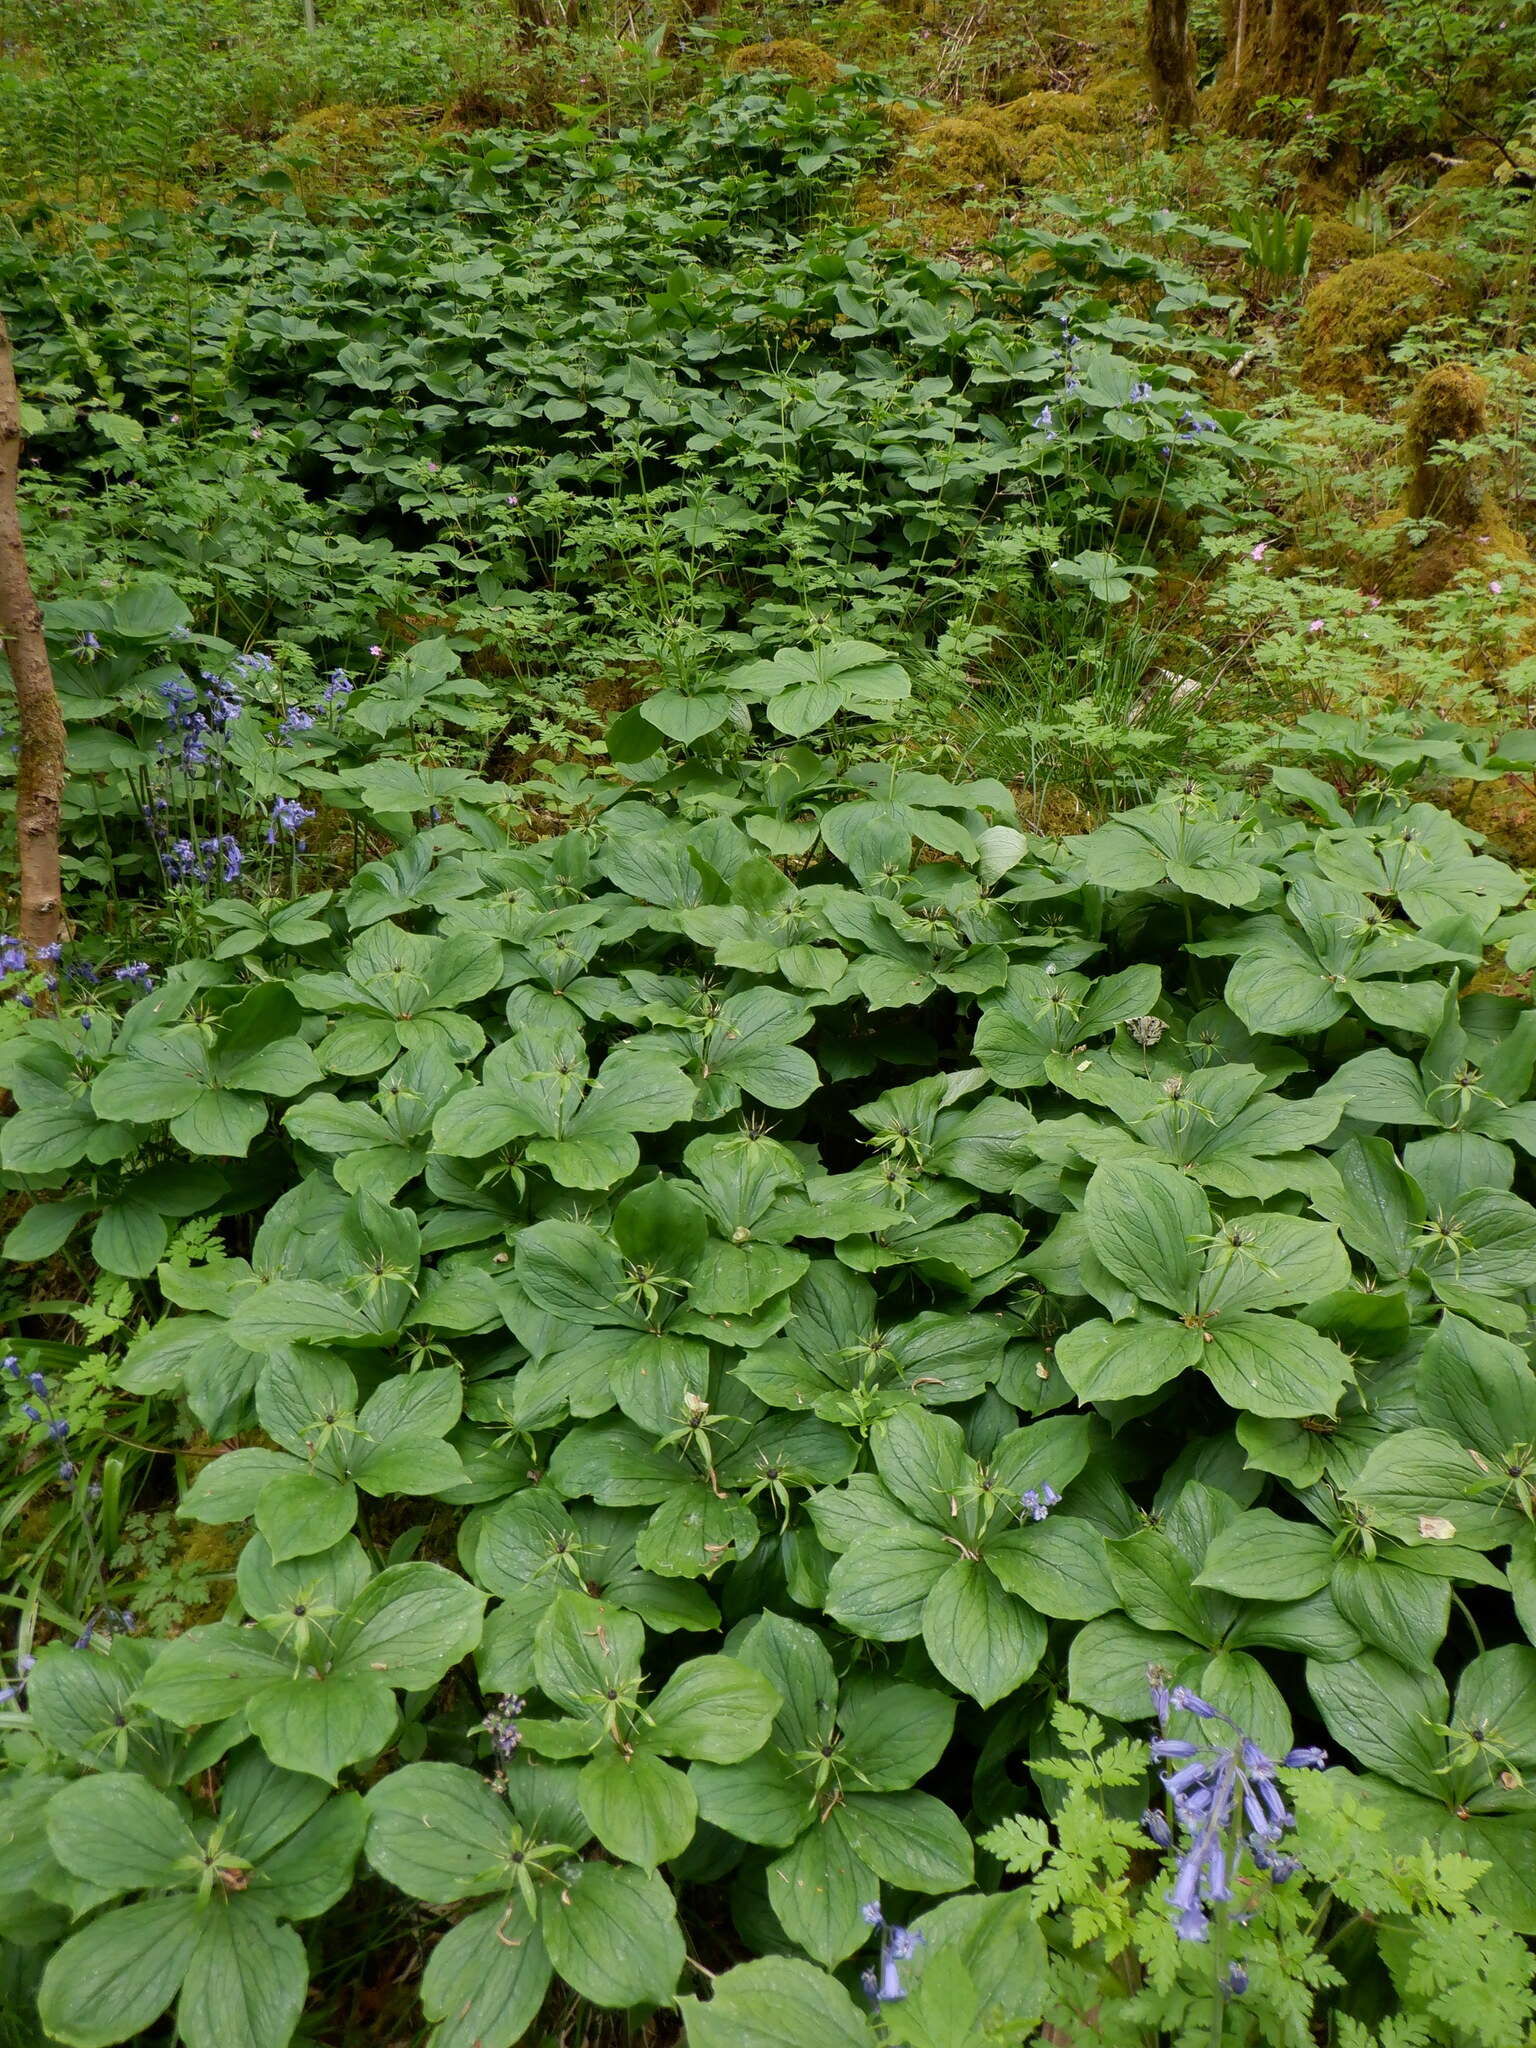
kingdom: Plantae
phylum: Tracheophyta
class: Liliopsida
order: Liliales
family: Melanthiaceae
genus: Paris
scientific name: Paris quadrifolia
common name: Herb-paris
